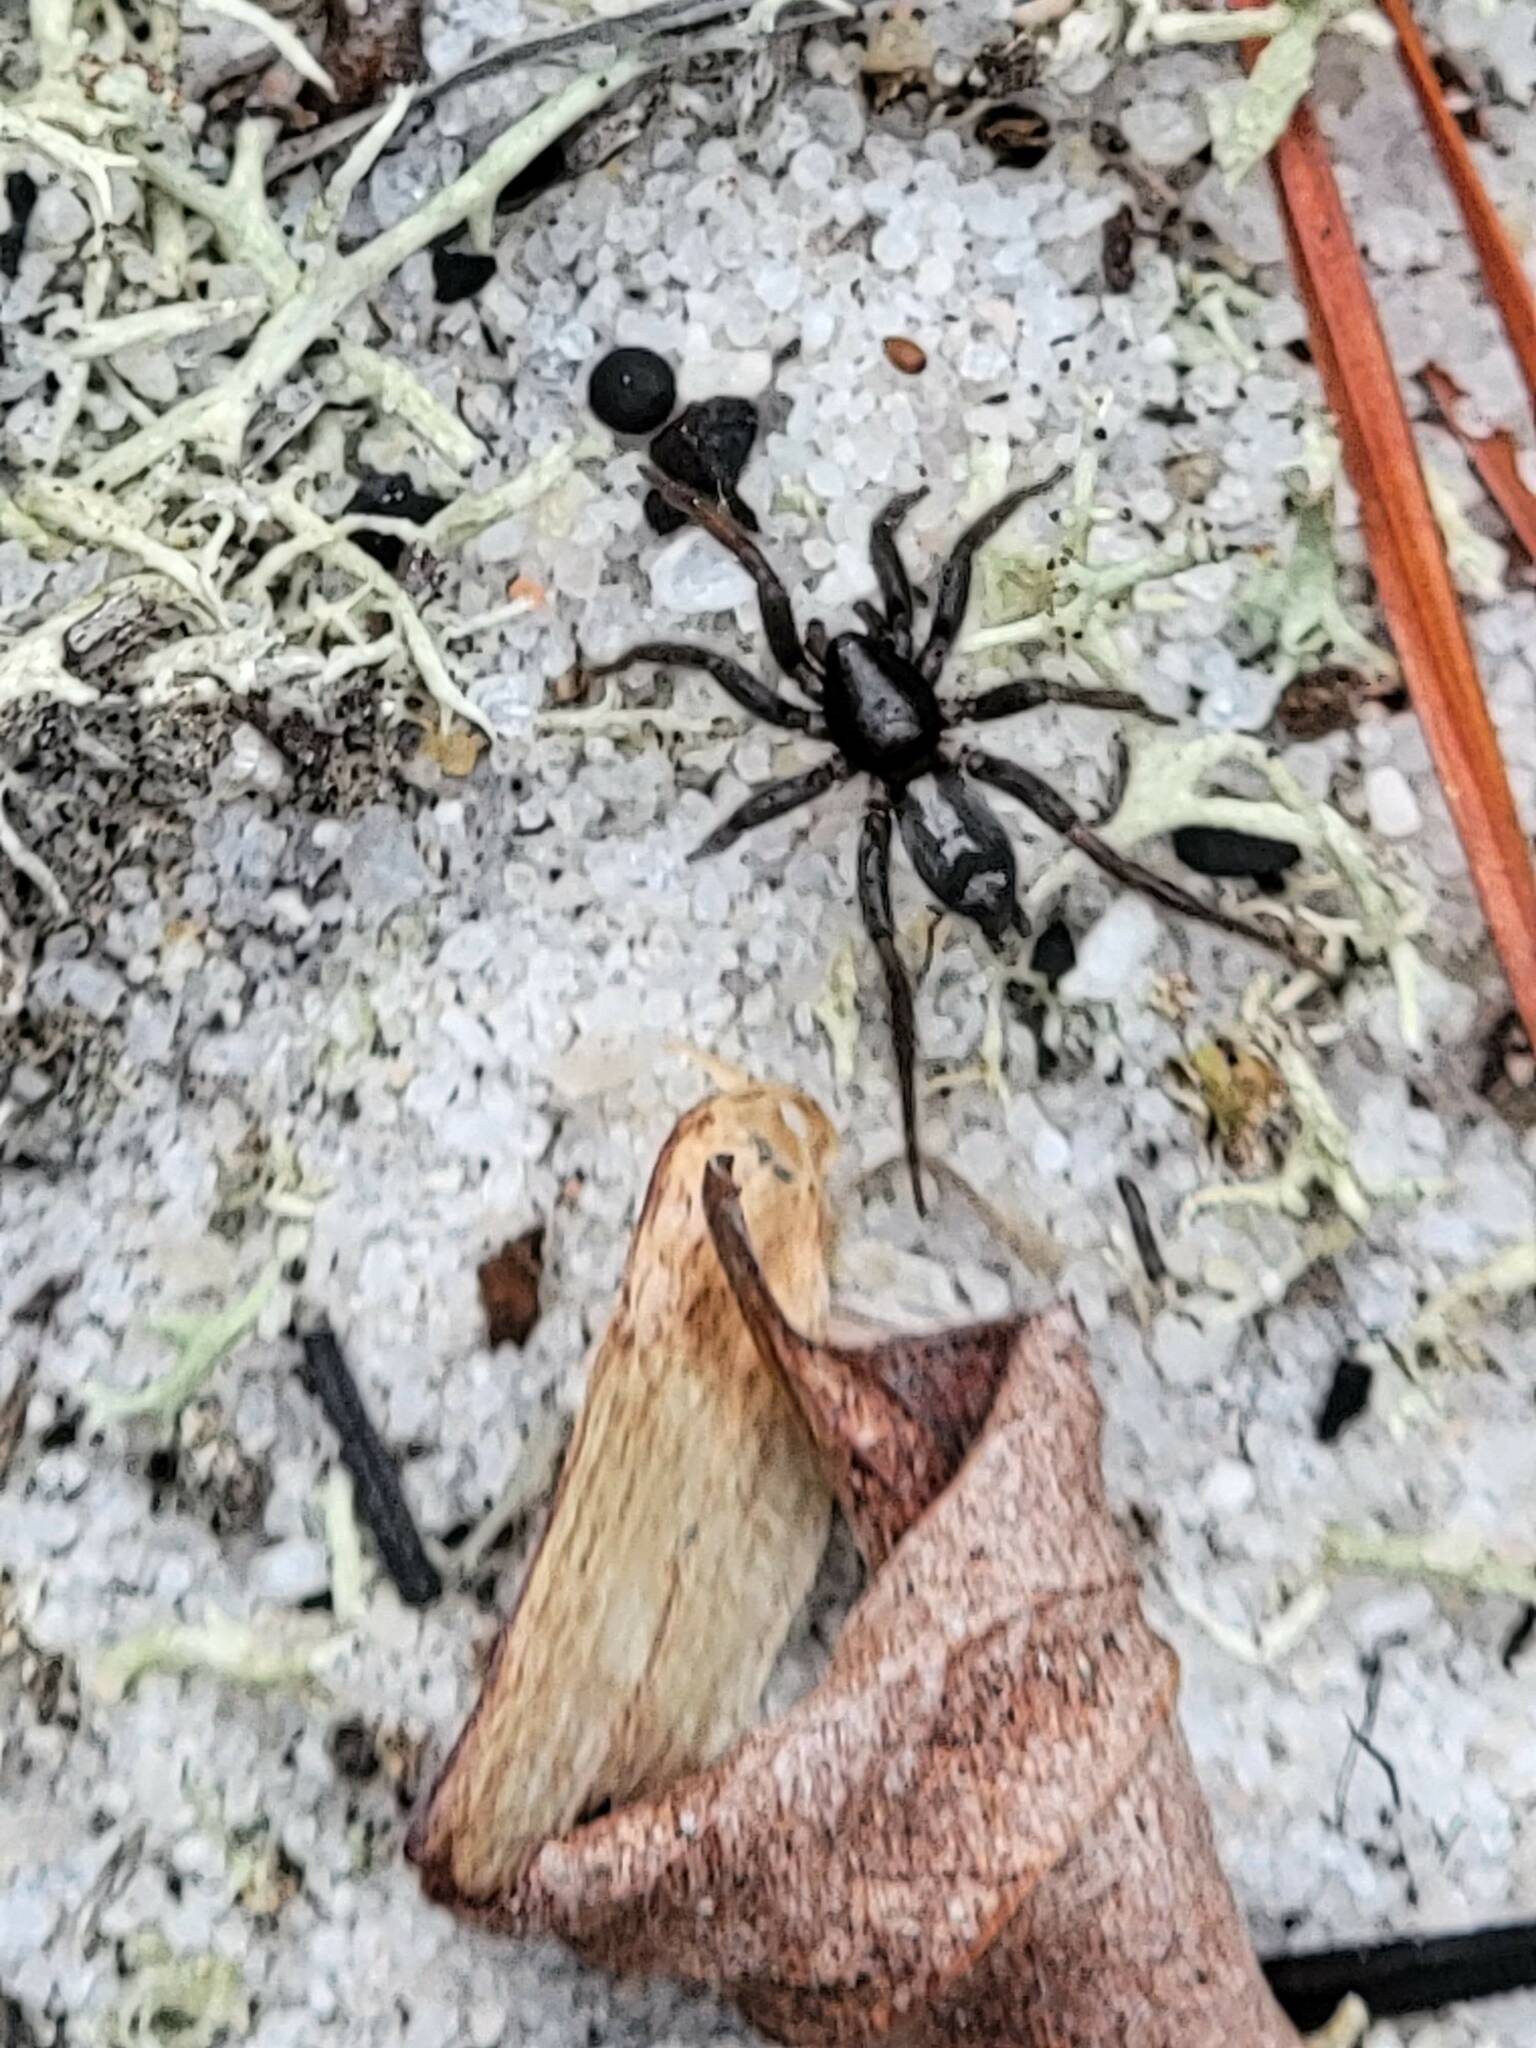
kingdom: Animalia
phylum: Arthropoda
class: Arachnida
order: Araneae
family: Gnaphosidae
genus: Herpyllus
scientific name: Herpyllus ecclesiasticus
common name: Eastern parson spider
